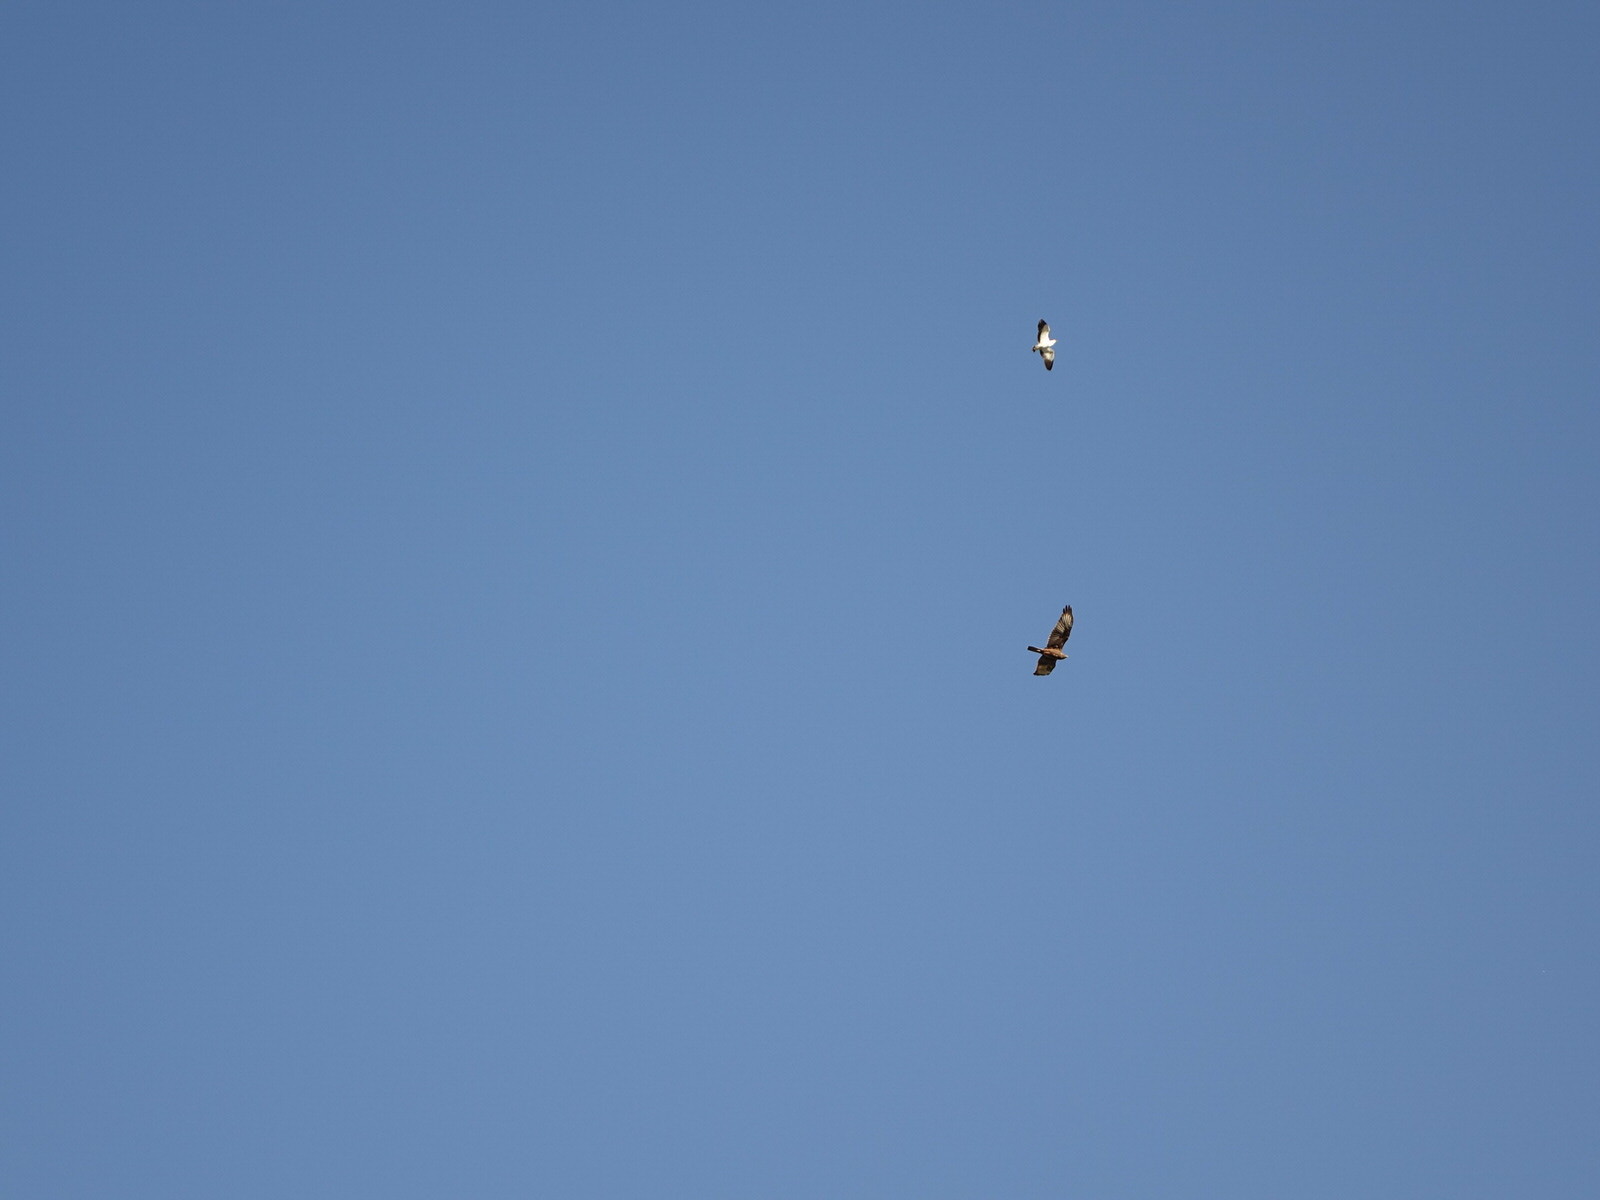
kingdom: Animalia
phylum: Chordata
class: Aves
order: Charadriiformes
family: Charadriidae
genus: Vanellus
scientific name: Vanellus miles
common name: Masked lapwing
